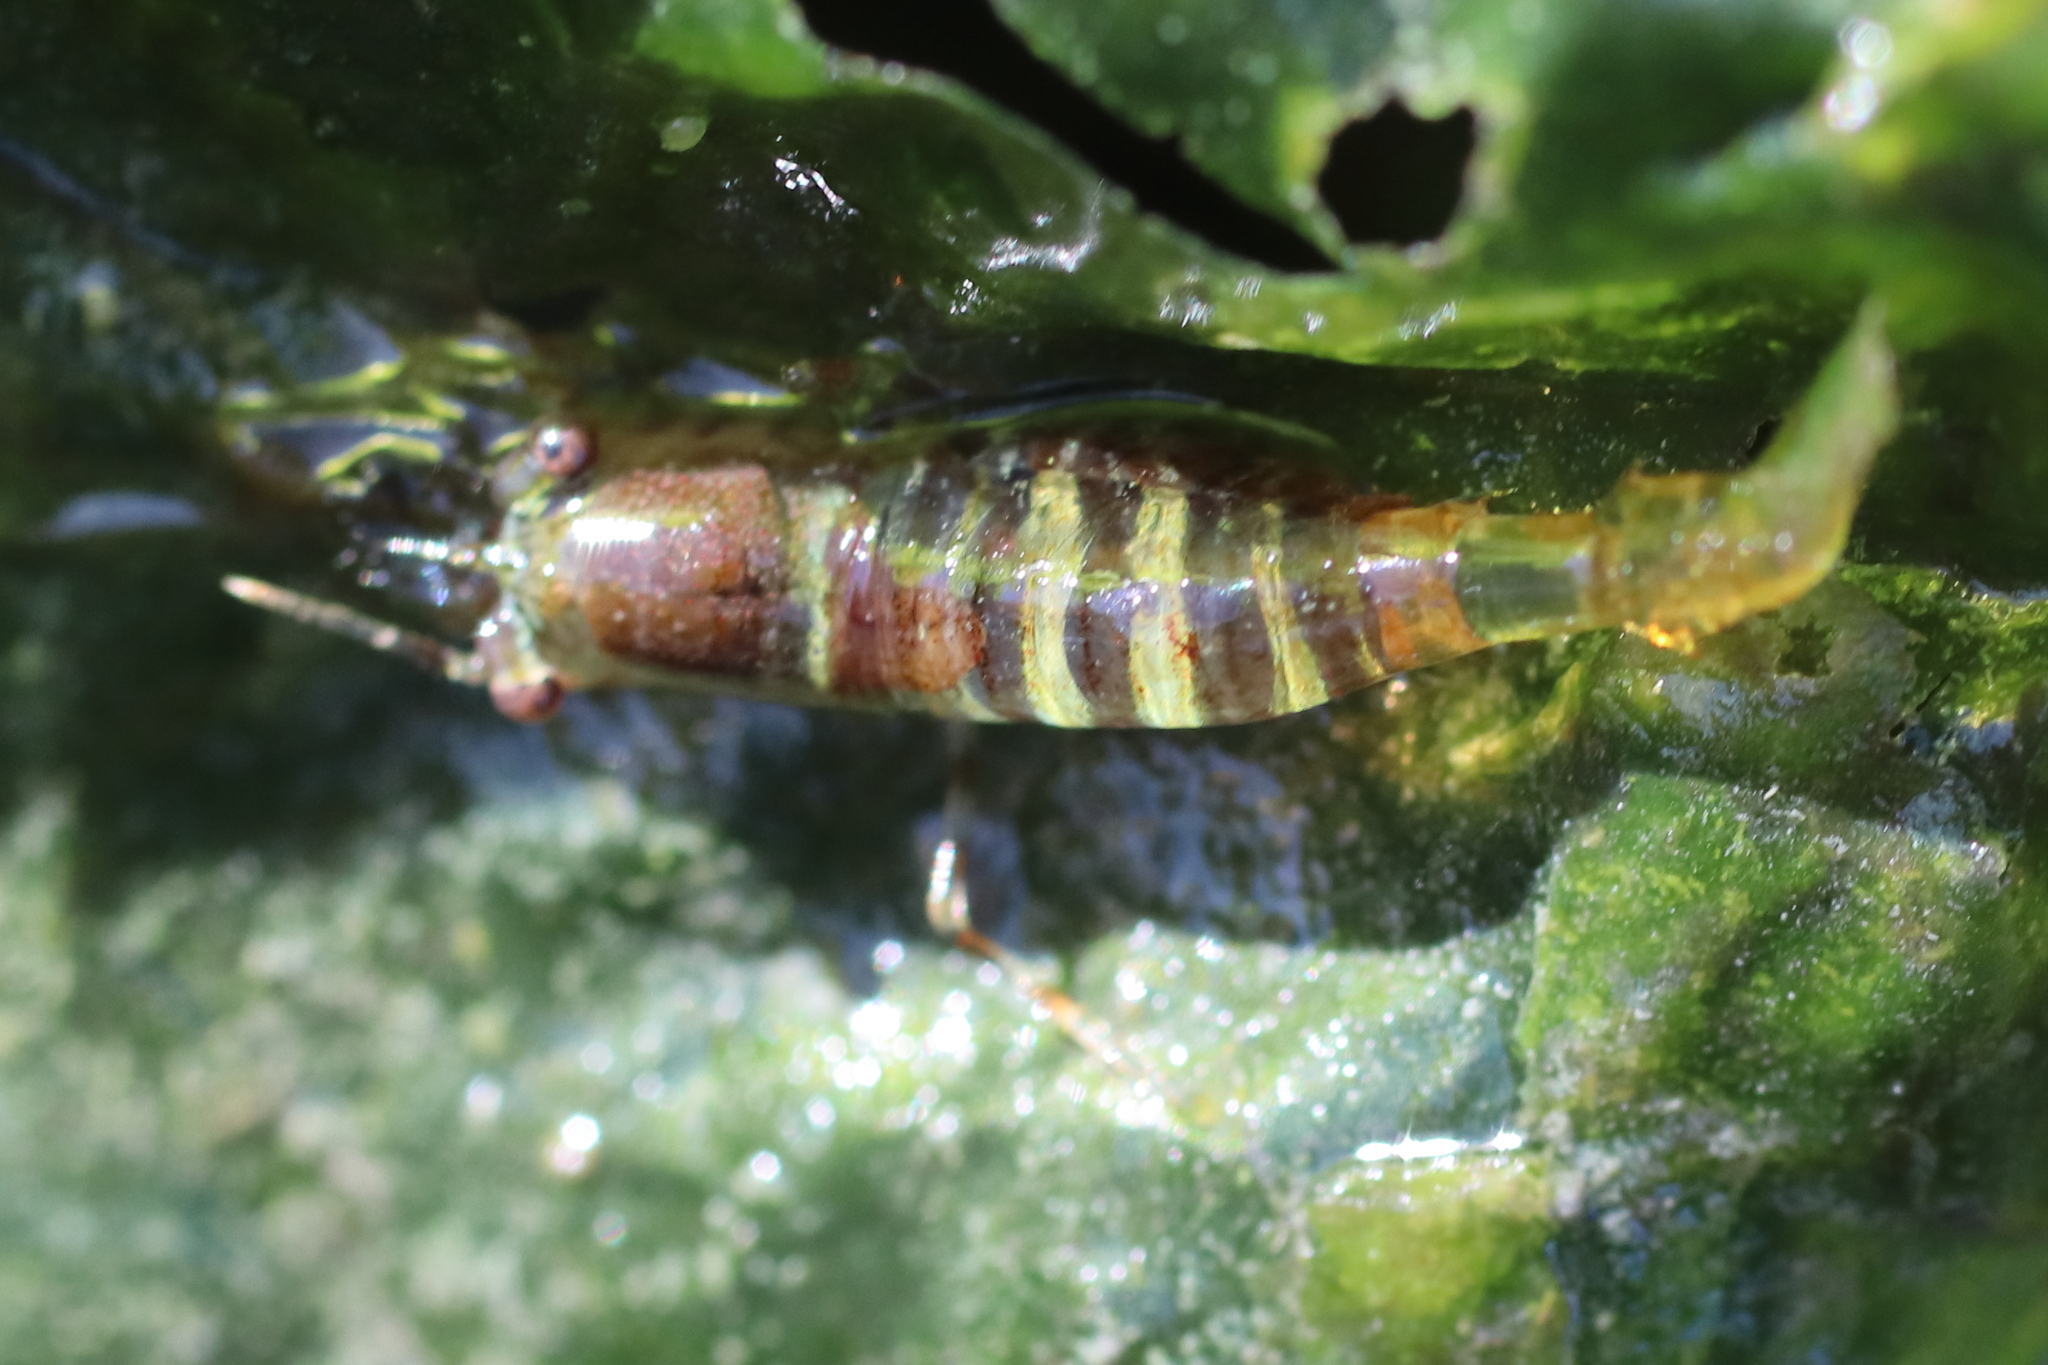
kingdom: Animalia
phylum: Arthropoda
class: Malacostraca
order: Decapoda
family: Thoridae
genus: Heptacarpus
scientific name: Heptacarpus pugettensis
